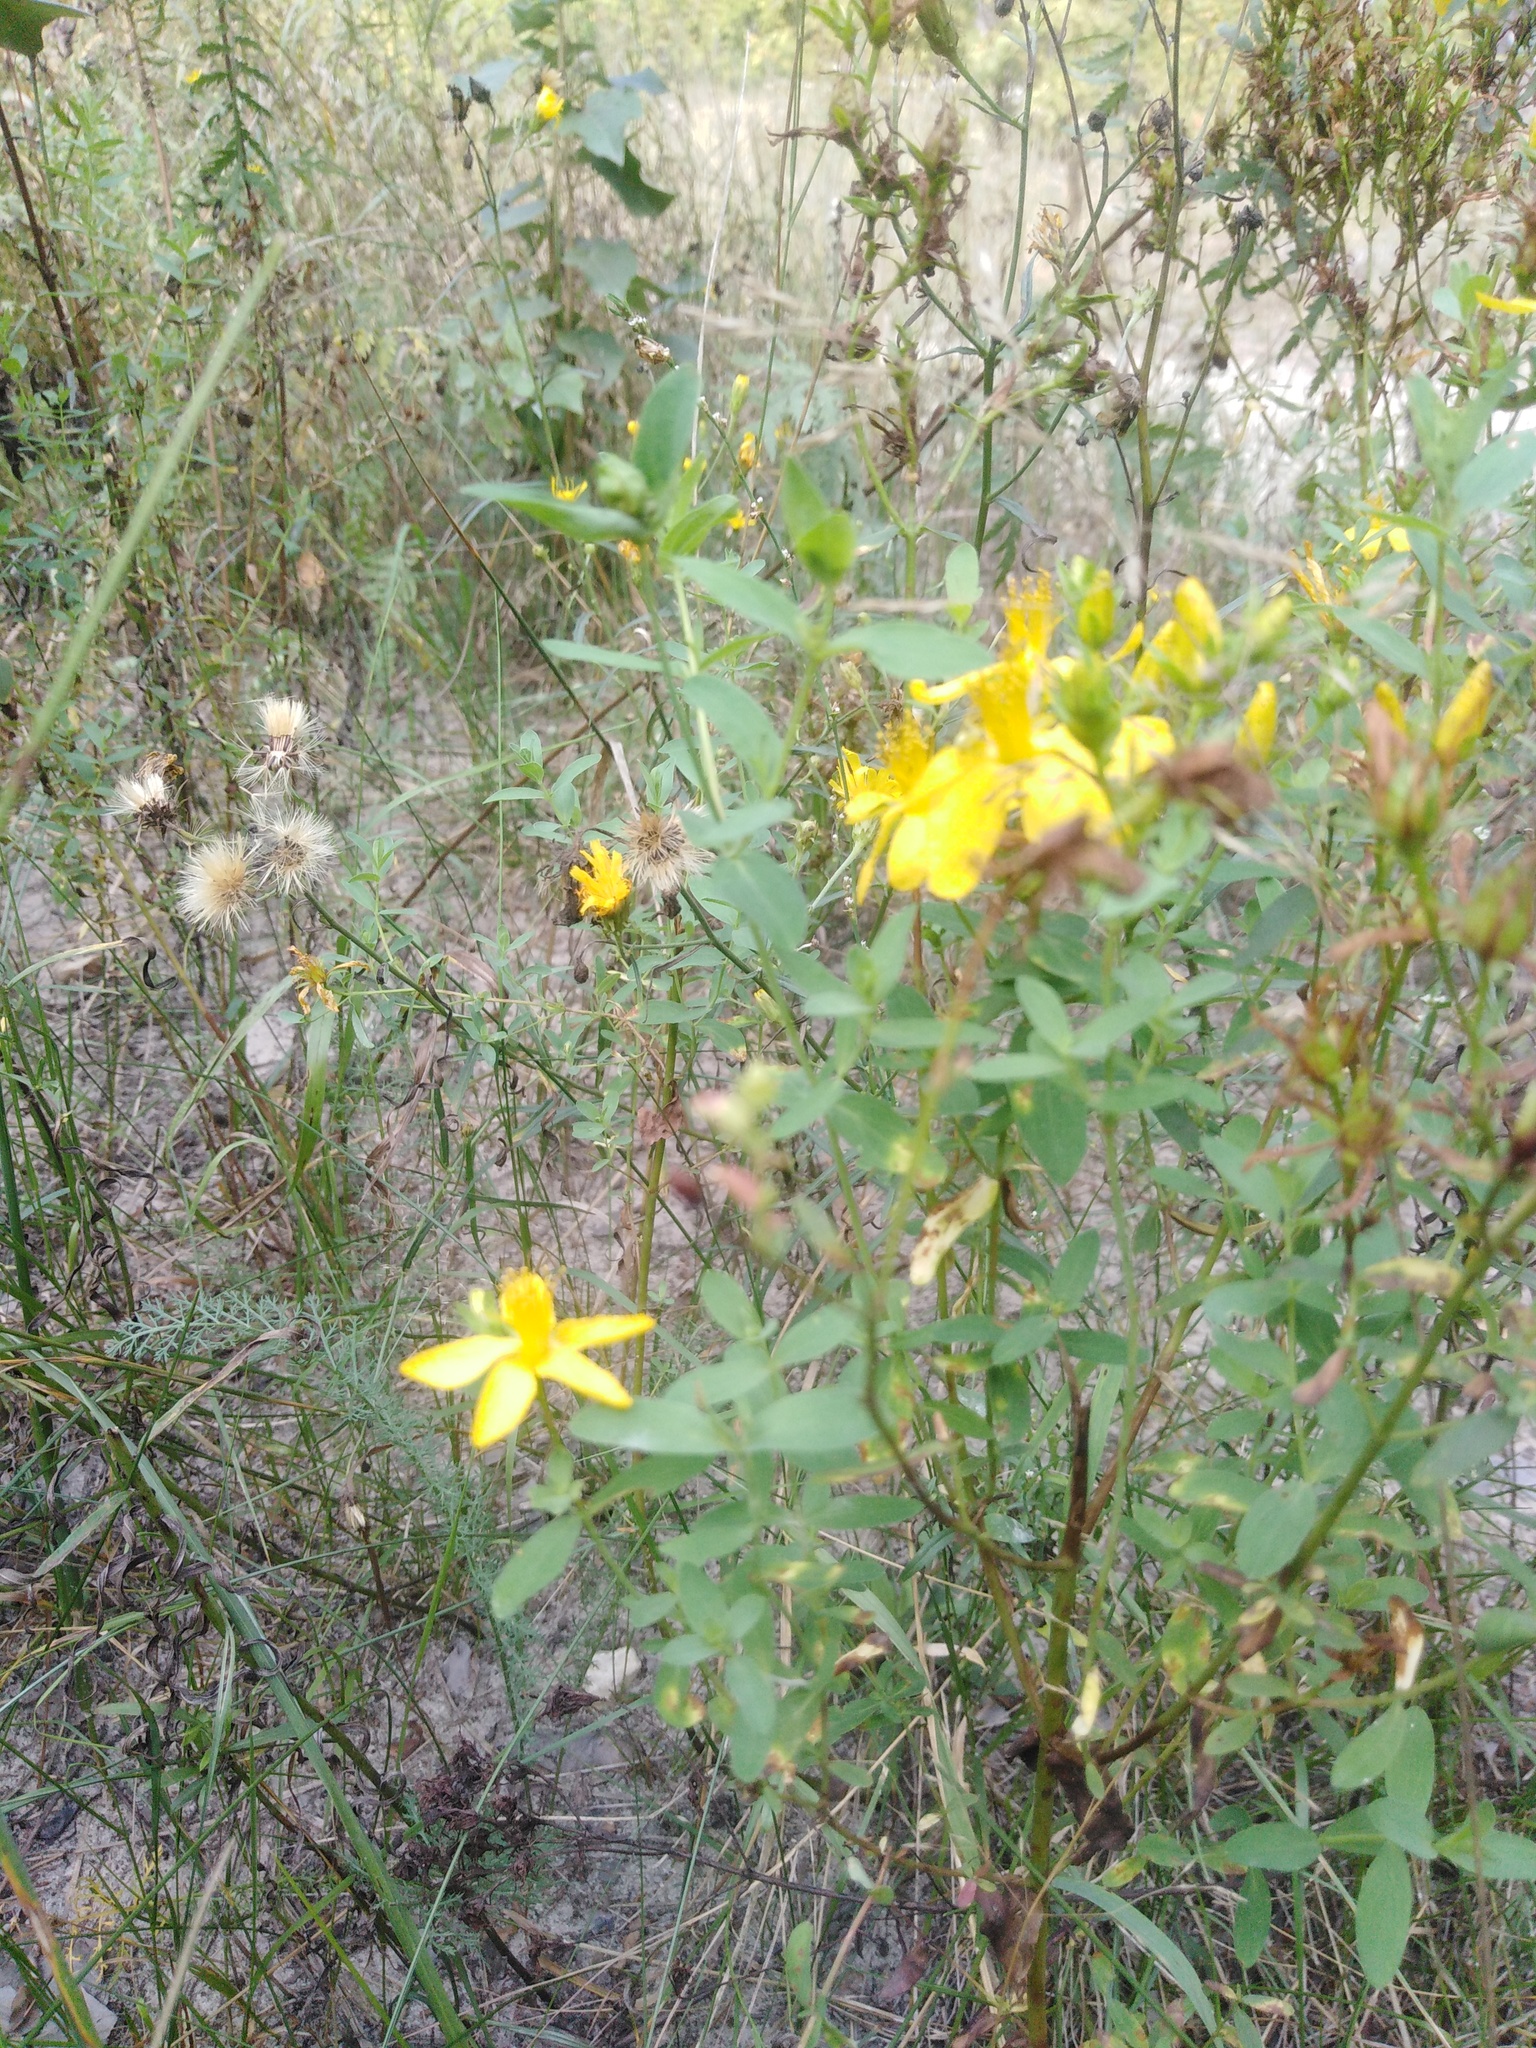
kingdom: Plantae
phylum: Tracheophyta
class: Magnoliopsida
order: Malpighiales
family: Hypericaceae
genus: Hypericum
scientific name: Hypericum perforatum
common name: Common st. johnswort
